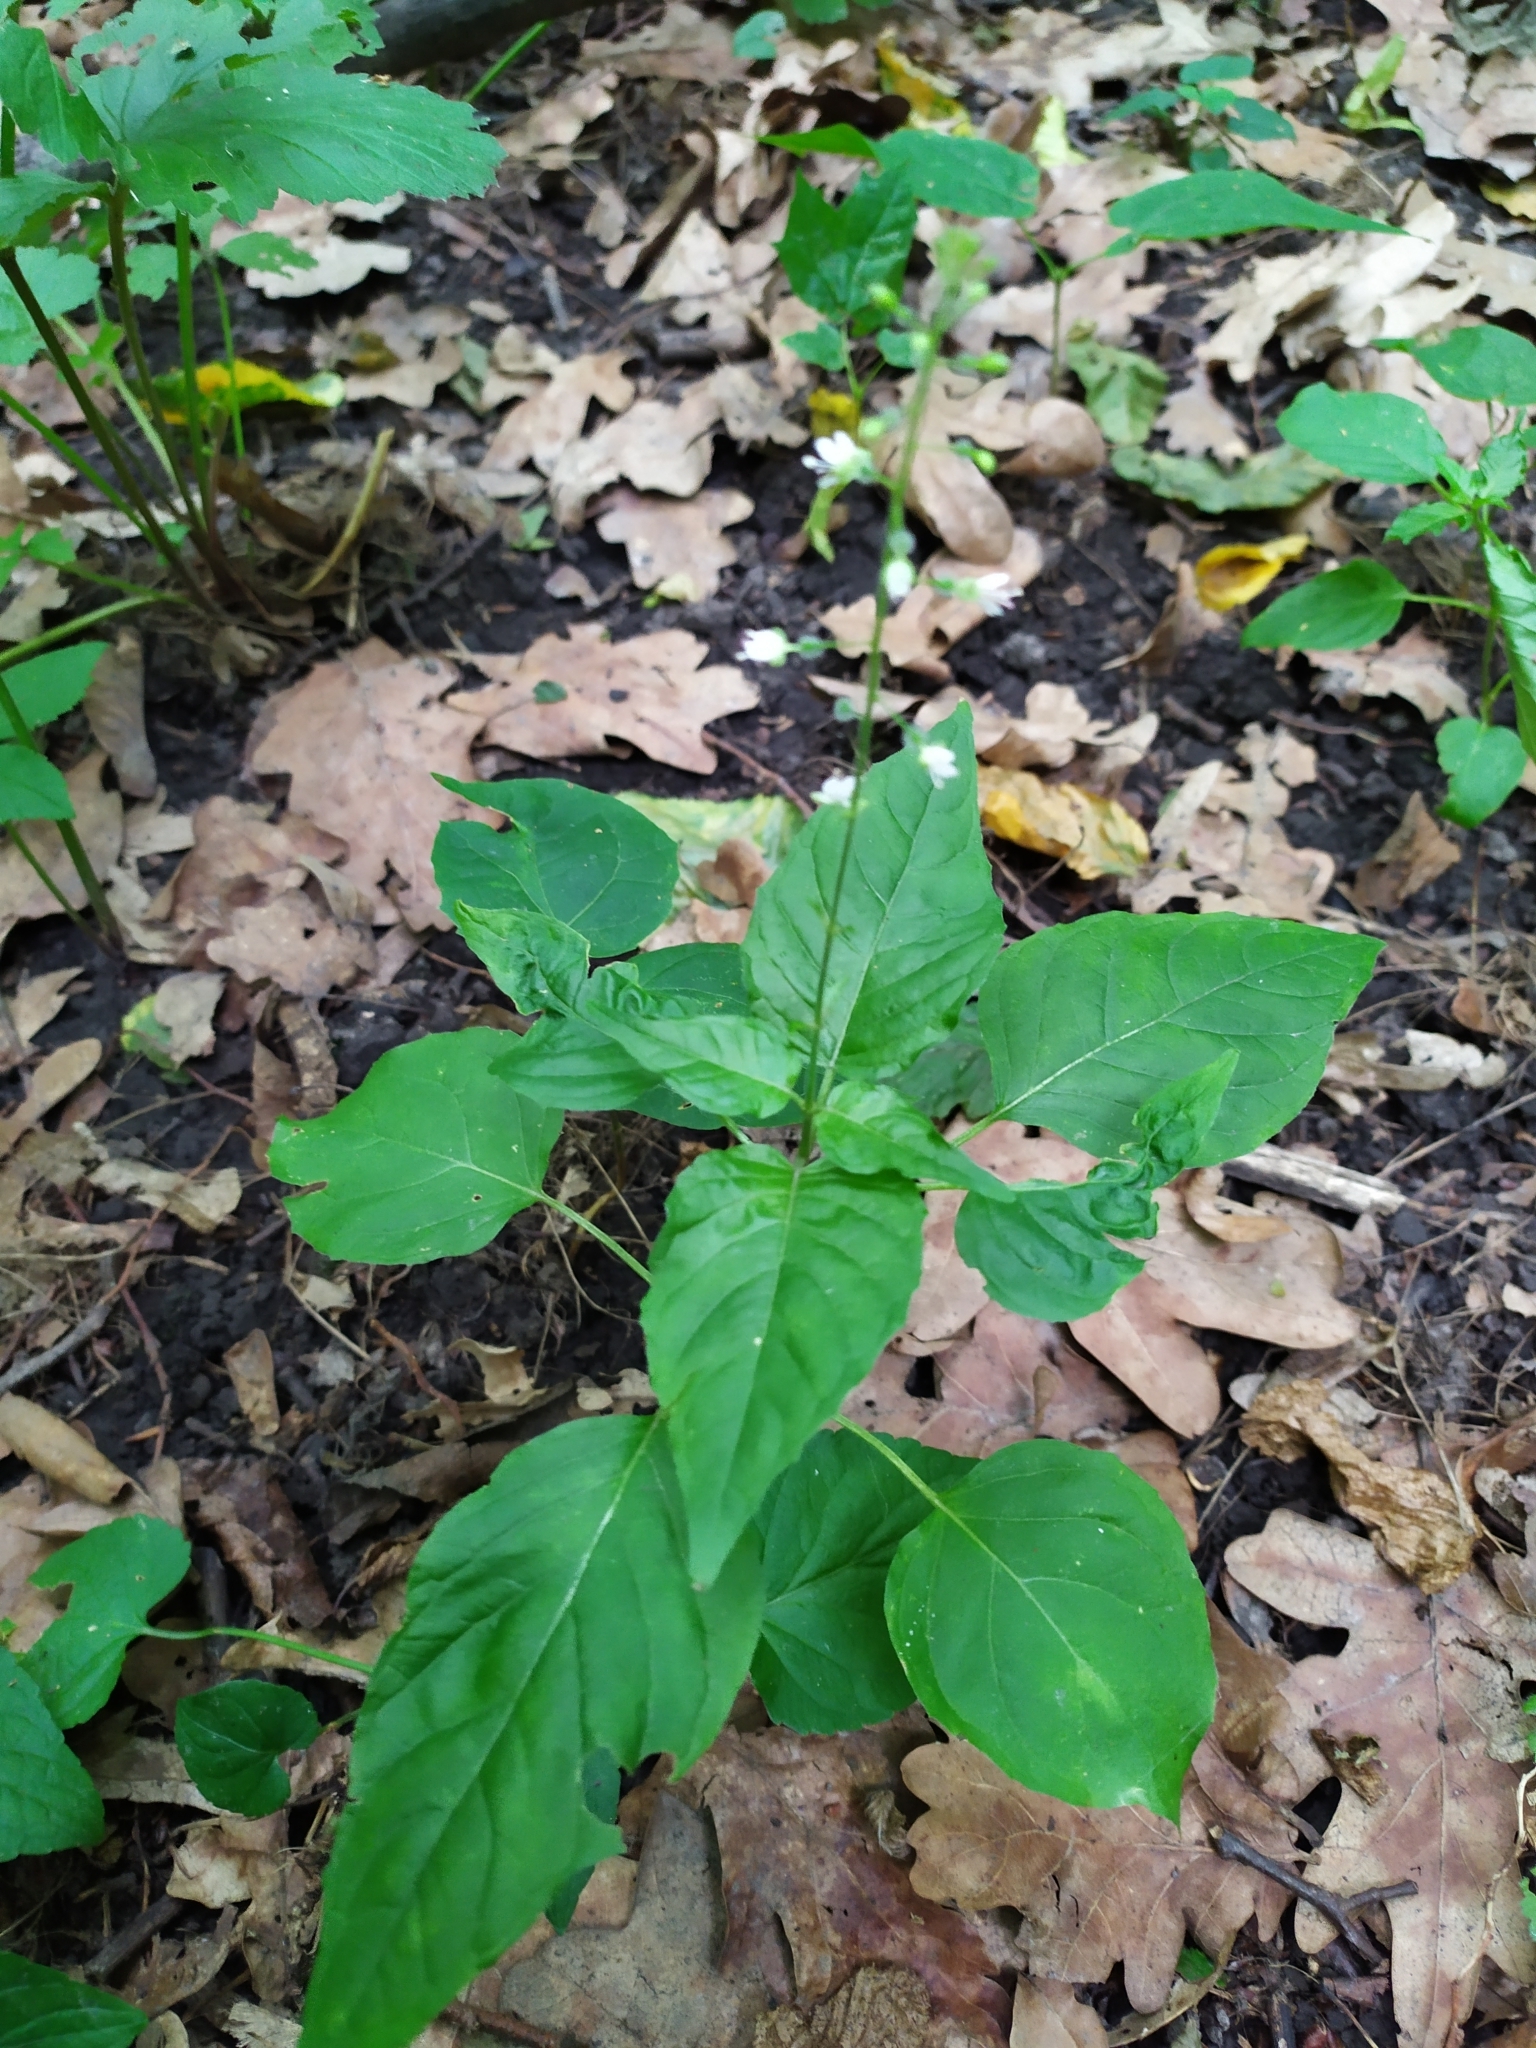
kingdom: Plantae
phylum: Tracheophyta
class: Magnoliopsida
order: Myrtales
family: Onagraceae
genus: Circaea
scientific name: Circaea lutetiana
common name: Enchanter's-nightshade
